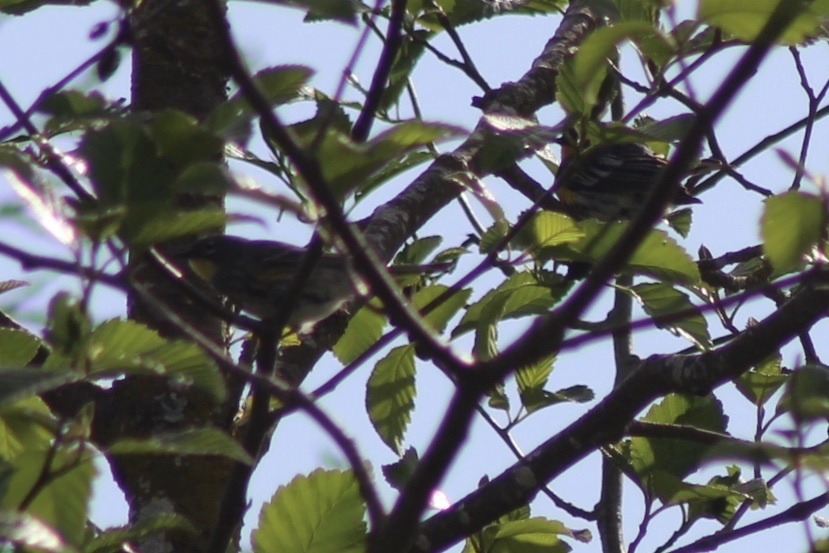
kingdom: Animalia
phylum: Chordata
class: Aves
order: Passeriformes
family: Parulidae
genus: Setophaga
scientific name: Setophaga auduboni
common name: Audubon's warbler
